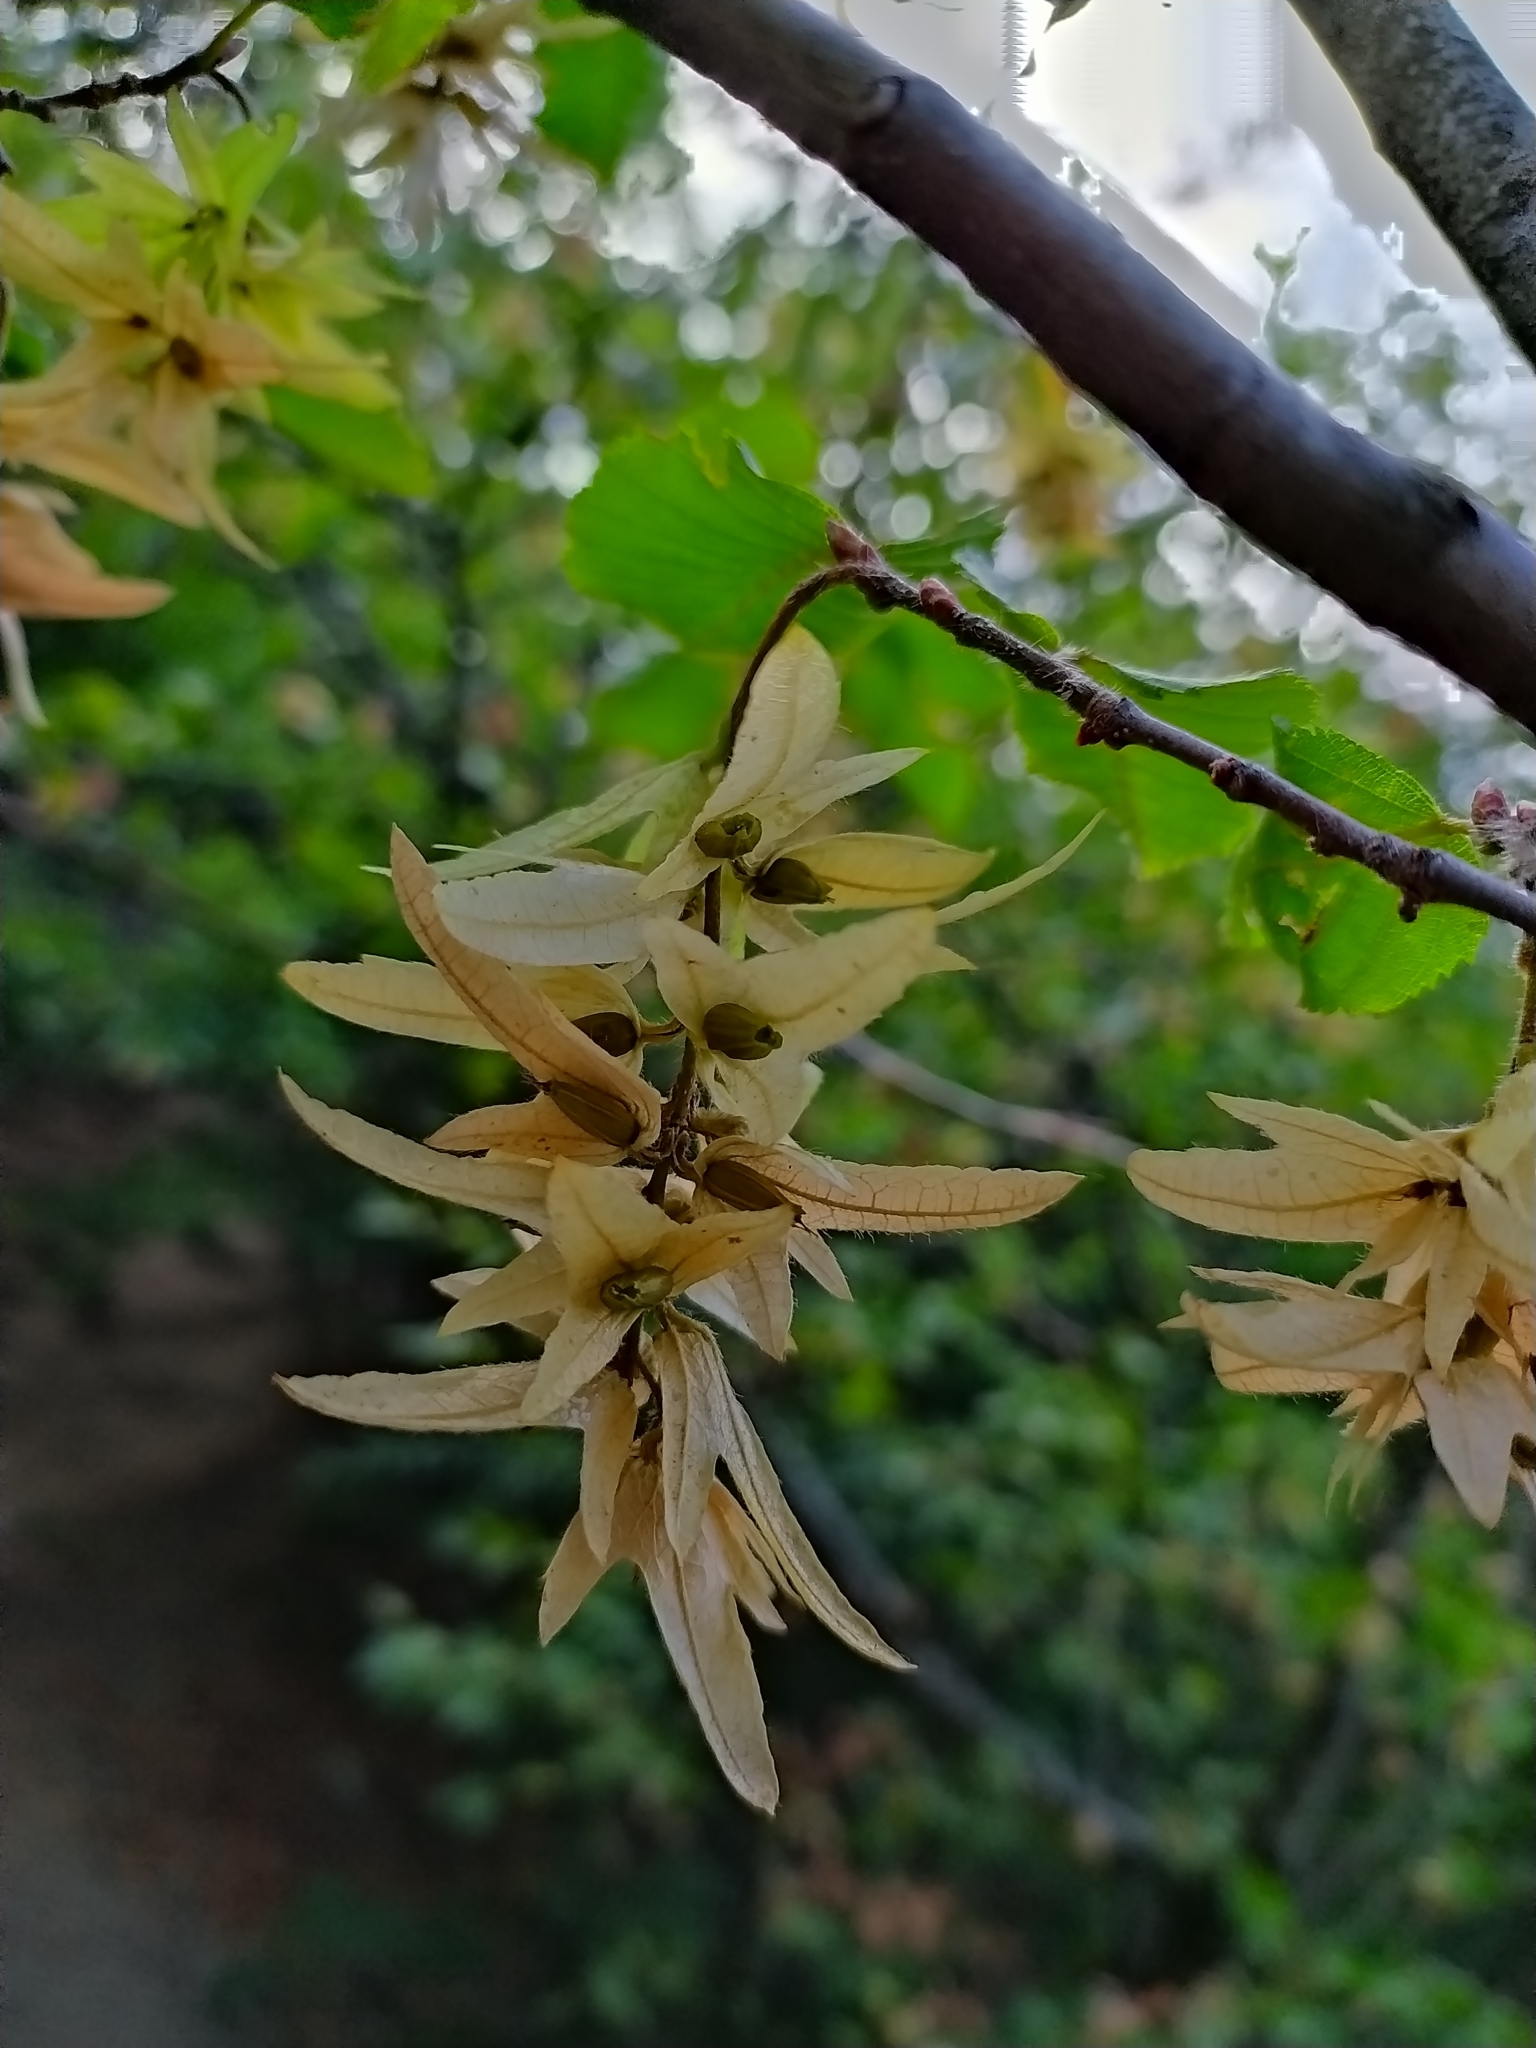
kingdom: Plantae
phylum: Tracheophyta
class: Magnoliopsida
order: Fagales
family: Betulaceae
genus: Carpinus
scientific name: Carpinus betulus
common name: Hornbeam
